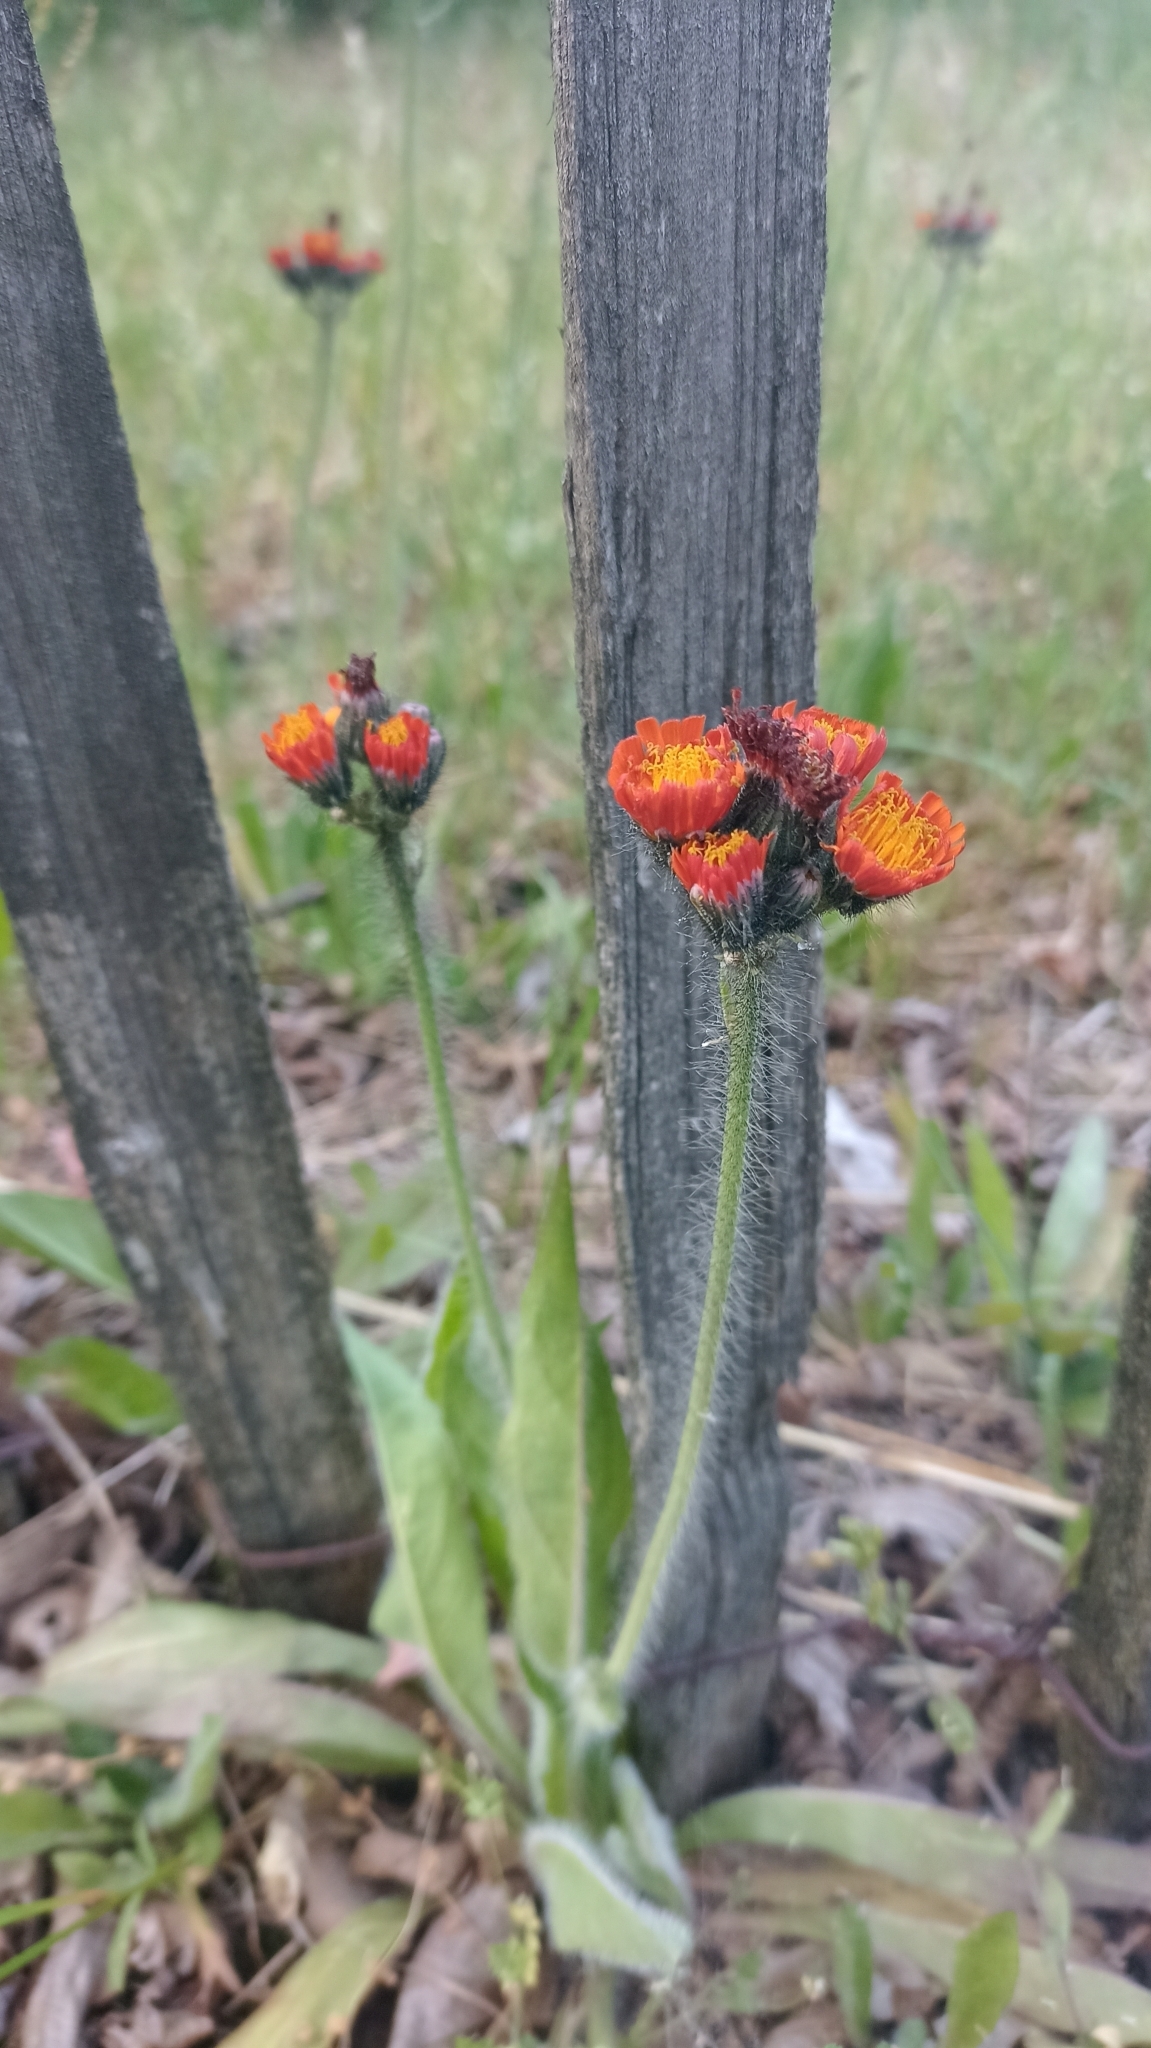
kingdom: Plantae
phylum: Tracheophyta
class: Magnoliopsida
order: Asterales
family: Asteraceae
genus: Pilosella
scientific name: Pilosella aurantiaca
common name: Fox-and-cubs
